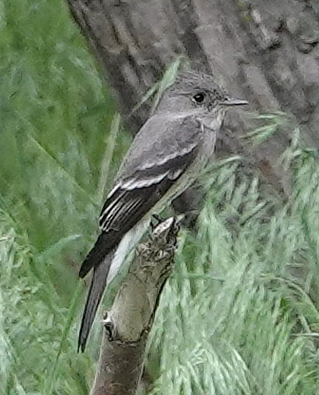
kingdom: Animalia
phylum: Chordata
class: Aves
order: Passeriformes
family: Tyrannidae
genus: Contopus
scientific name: Contopus sordidulus
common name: Western wood-pewee
